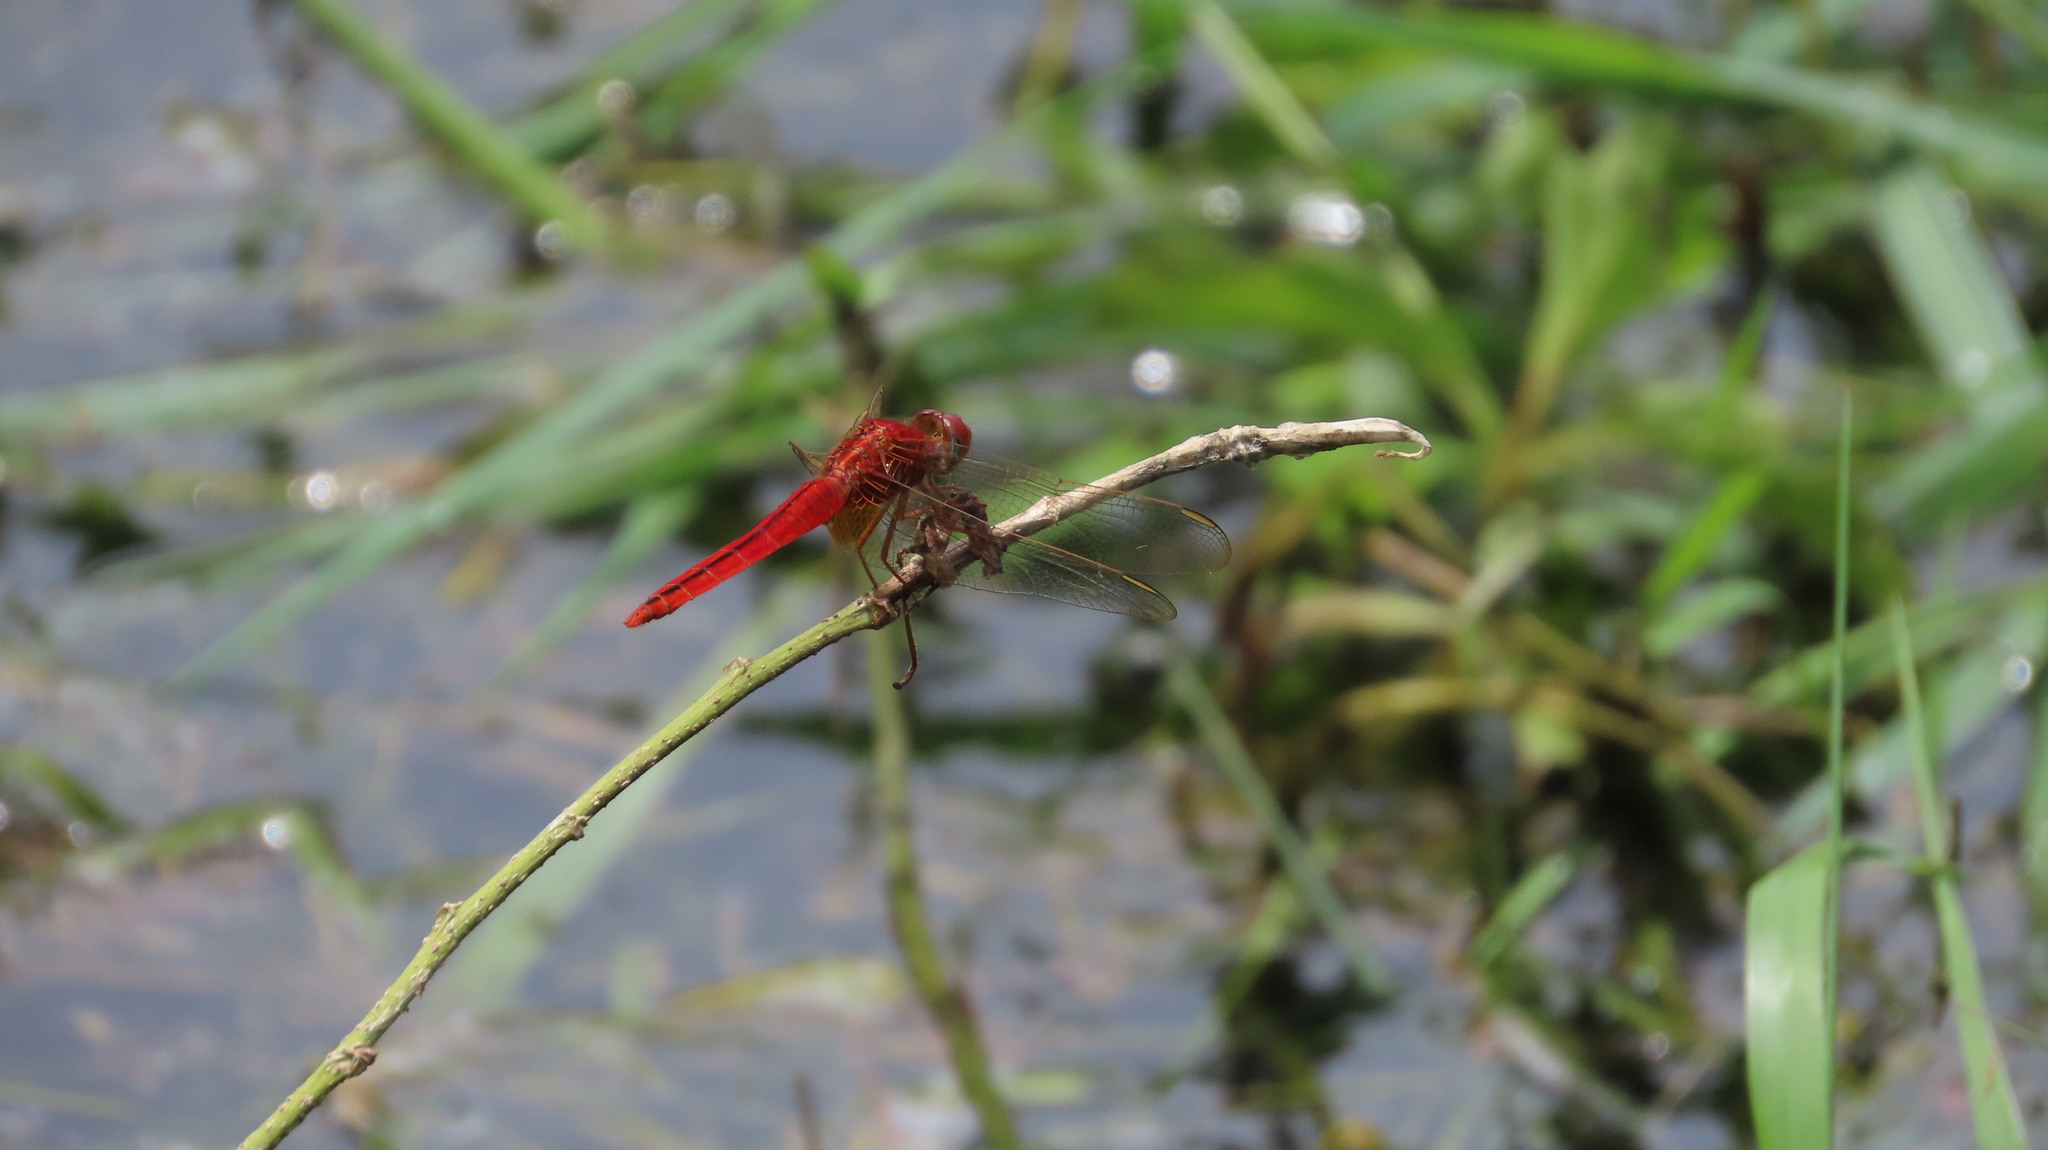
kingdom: Animalia
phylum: Arthropoda
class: Insecta
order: Odonata
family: Libellulidae
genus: Crocothemis
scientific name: Crocothemis servilia
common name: Scarlet skimmer
